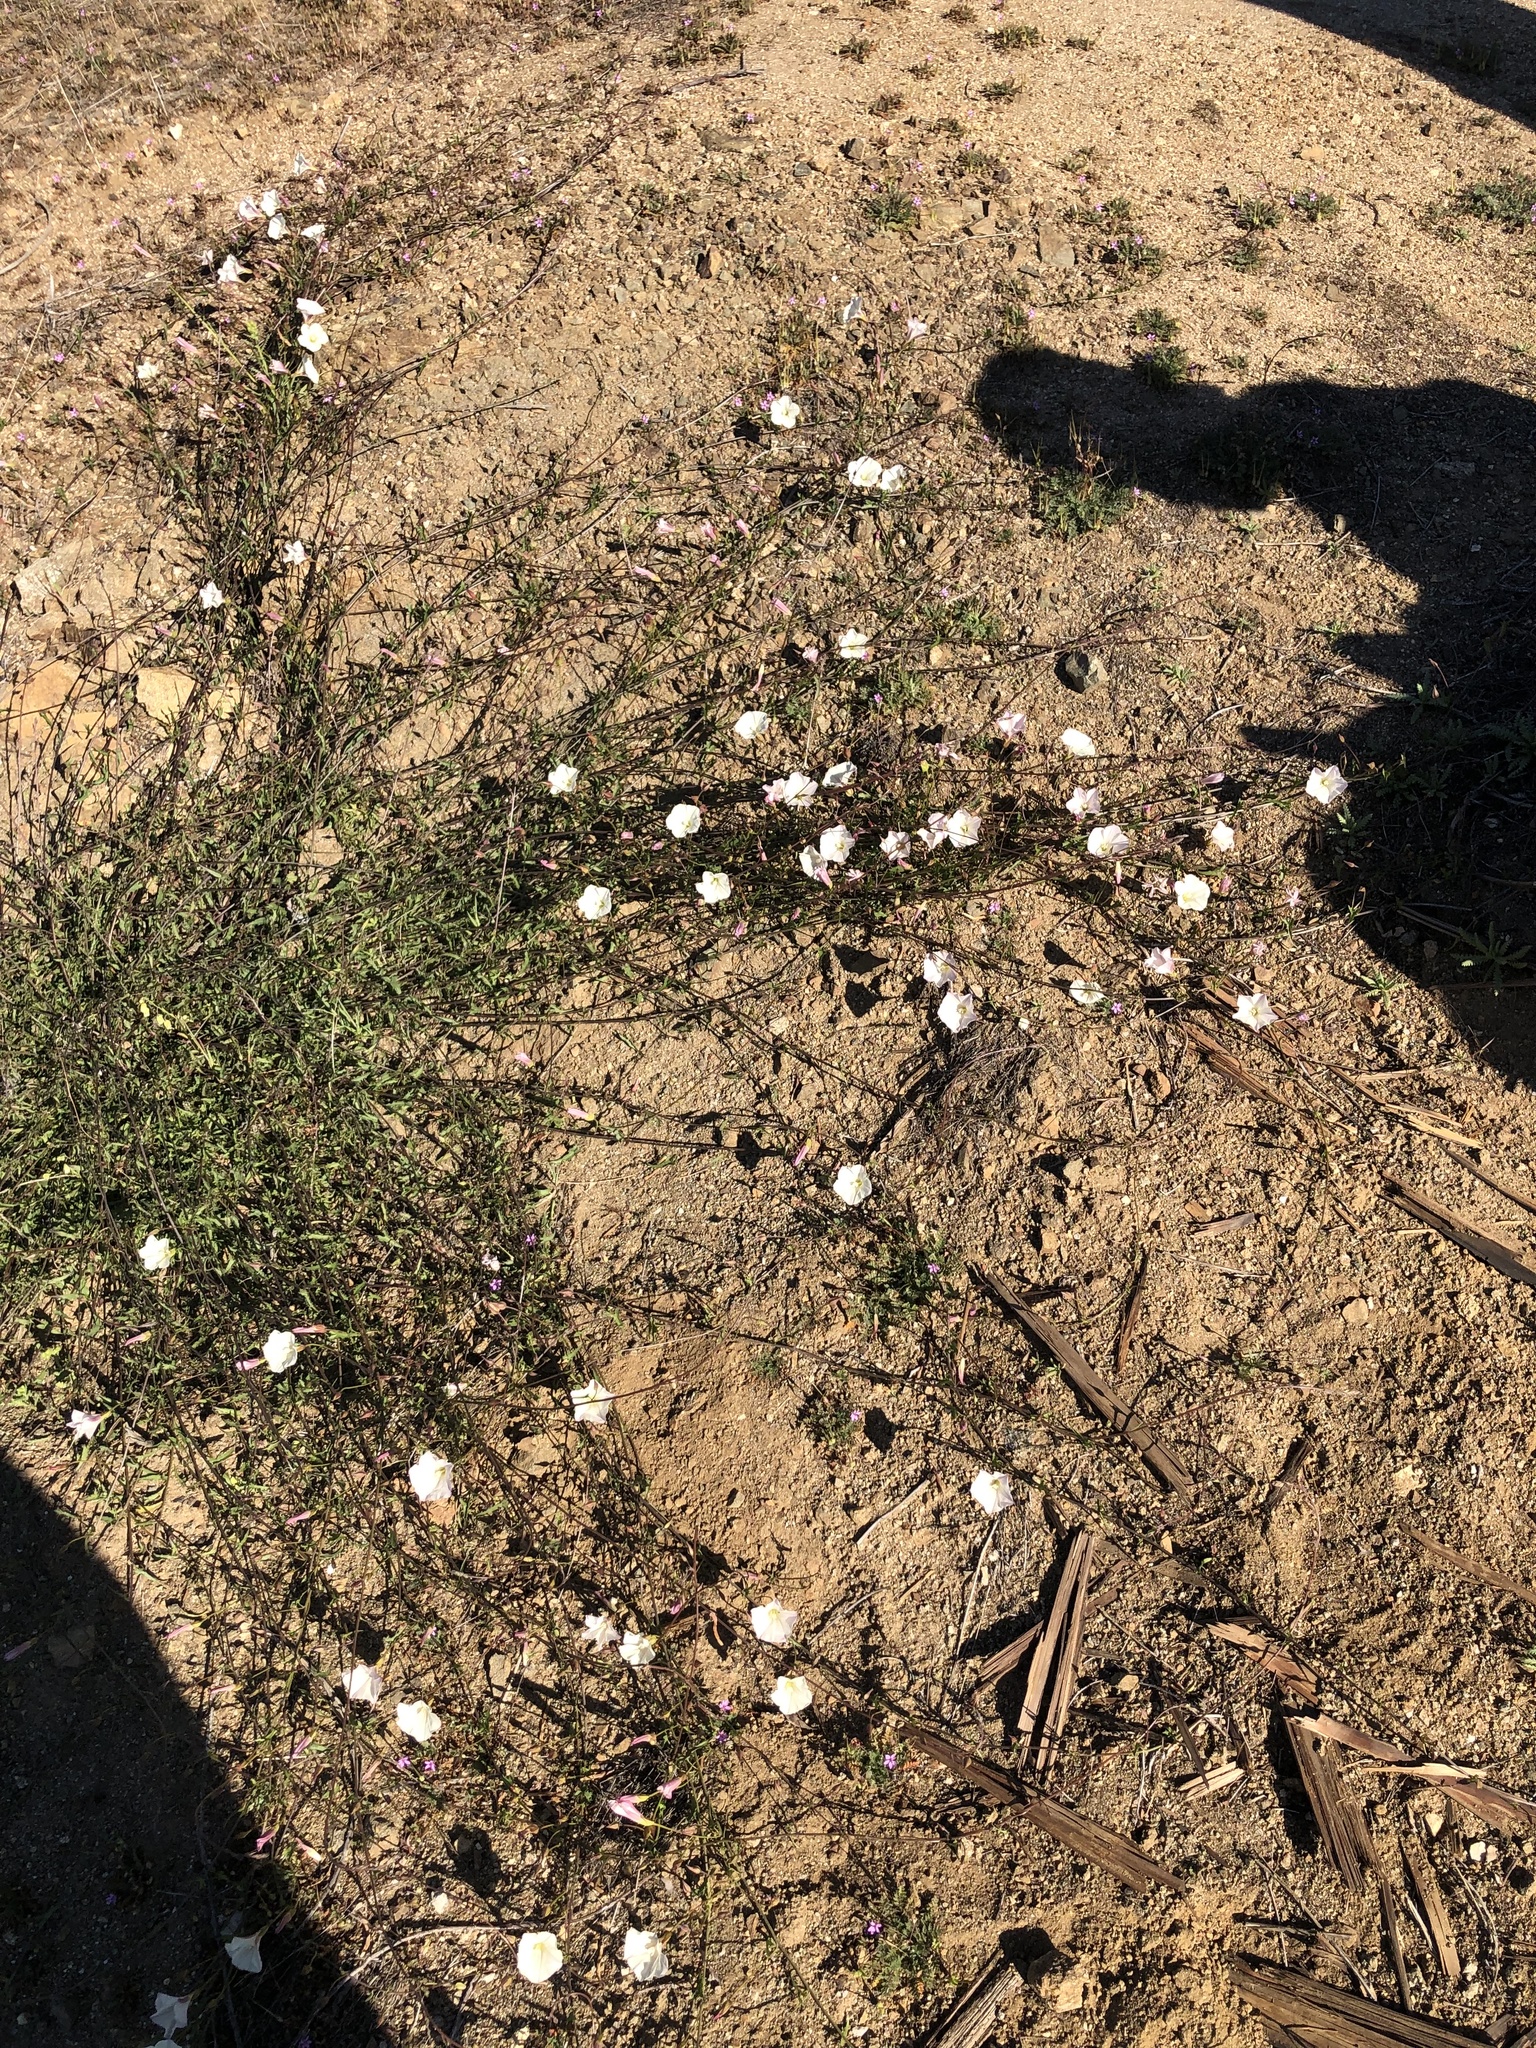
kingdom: Plantae
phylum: Tracheophyta
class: Magnoliopsida
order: Solanales
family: Convolvulaceae
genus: Calystegia
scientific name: Calystegia macrostegia
